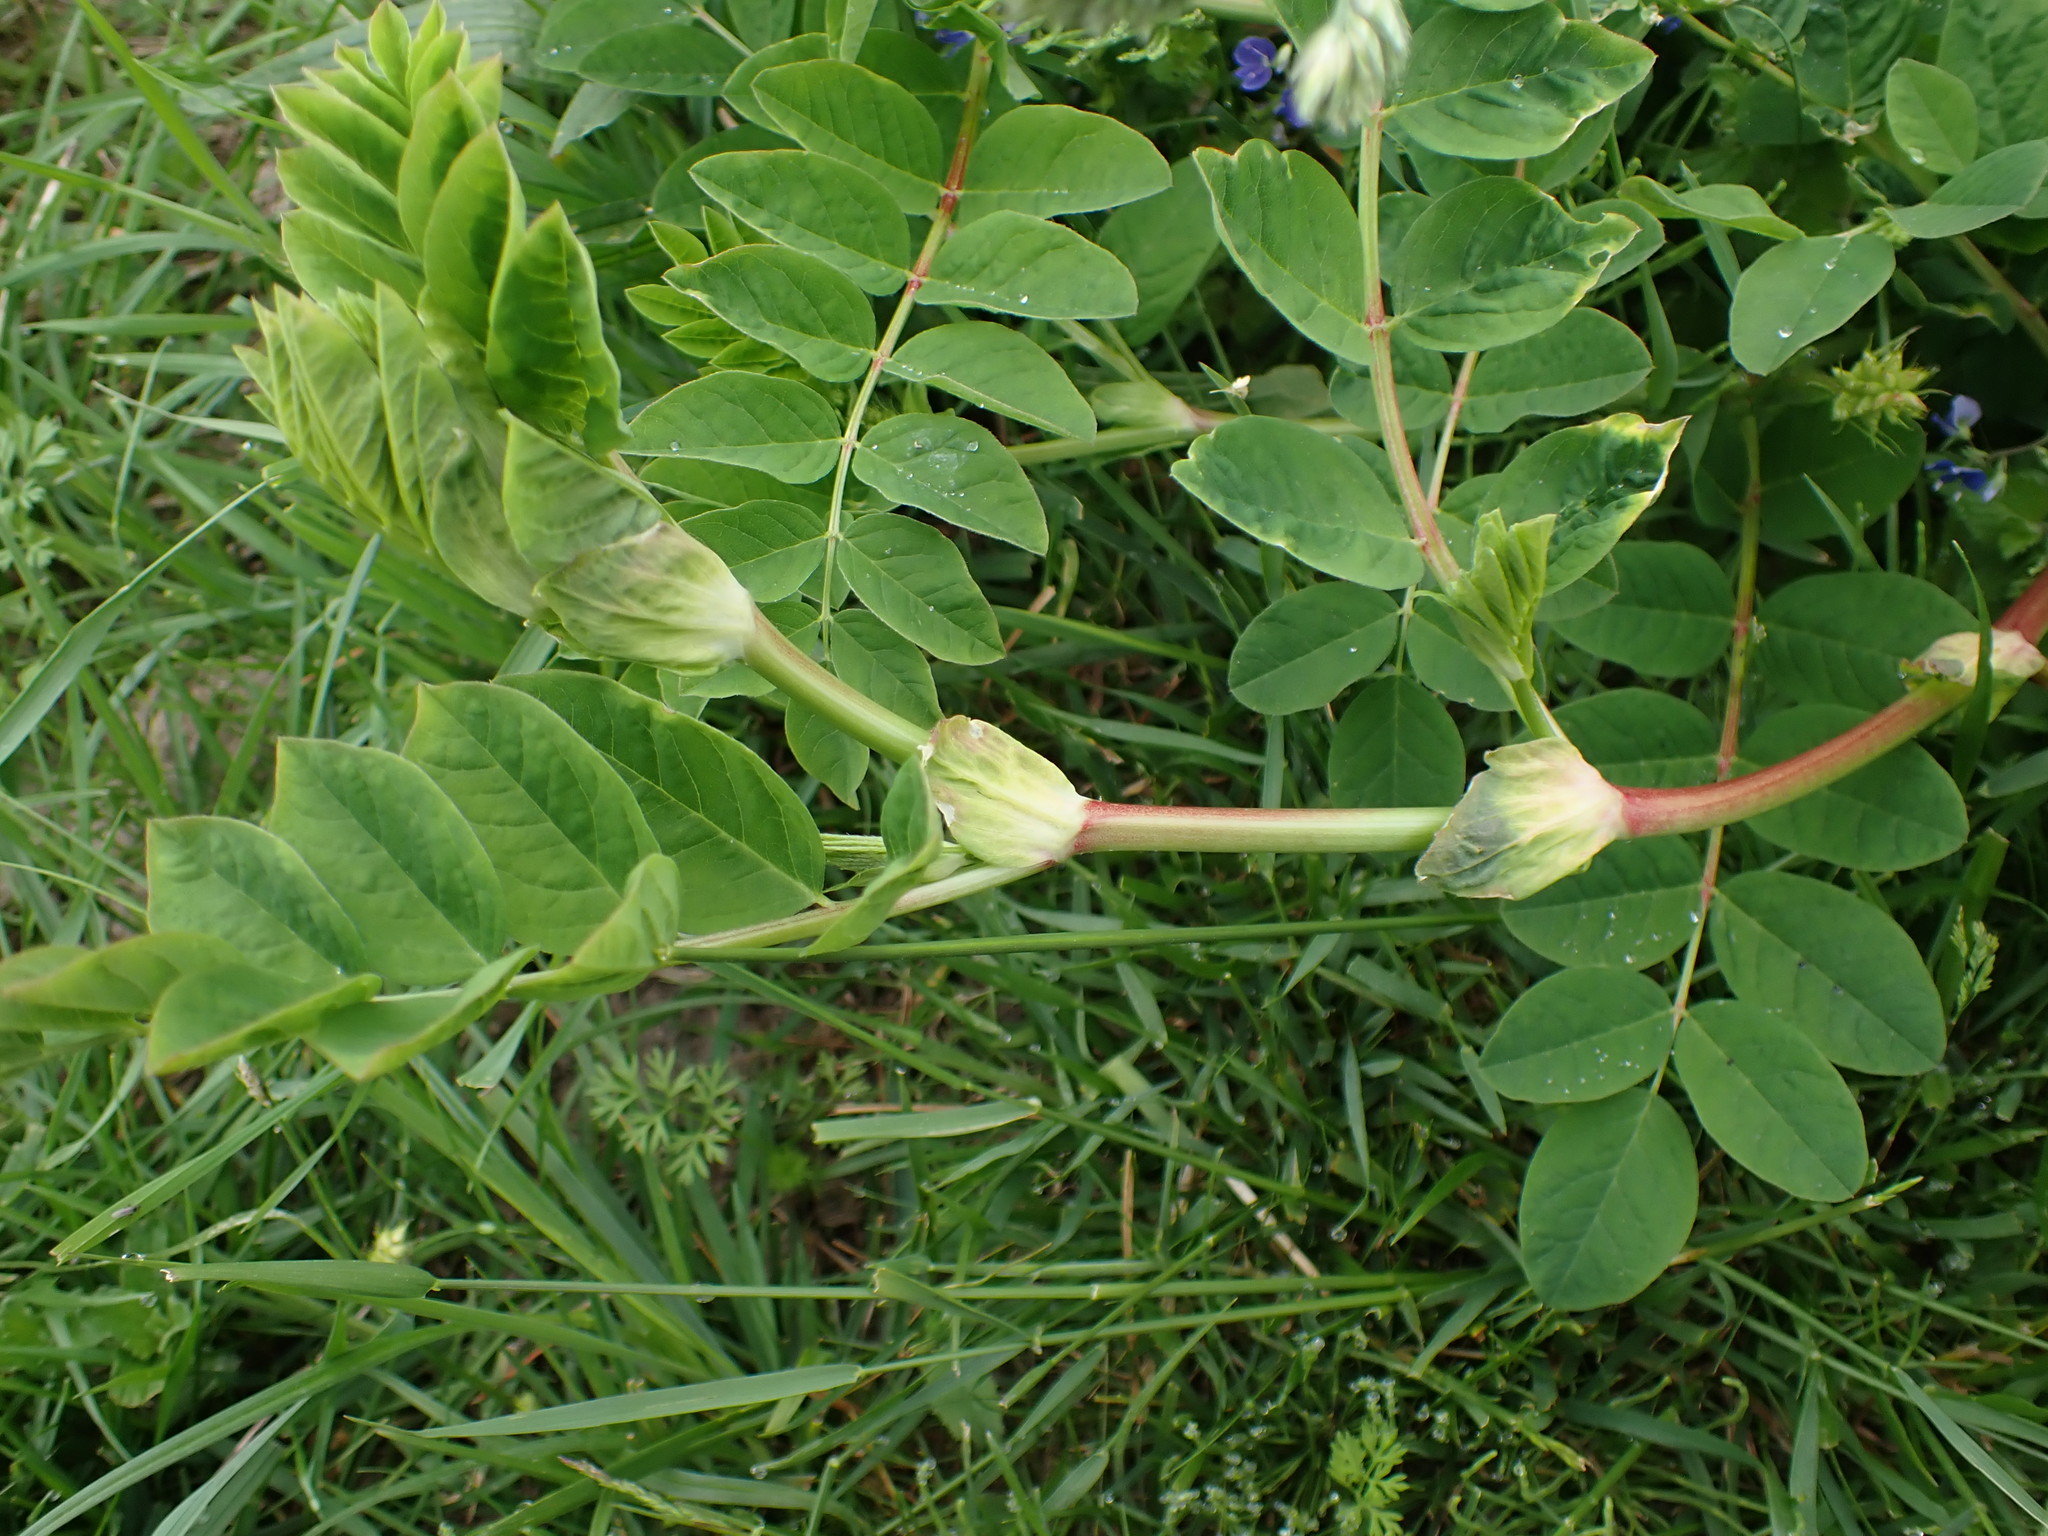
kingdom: Plantae
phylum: Tracheophyta
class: Magnoliopsida
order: Fabales
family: Fabaceae
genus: Astragalus
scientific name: Astragalus glycyphyllos
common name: Wild liquorice
